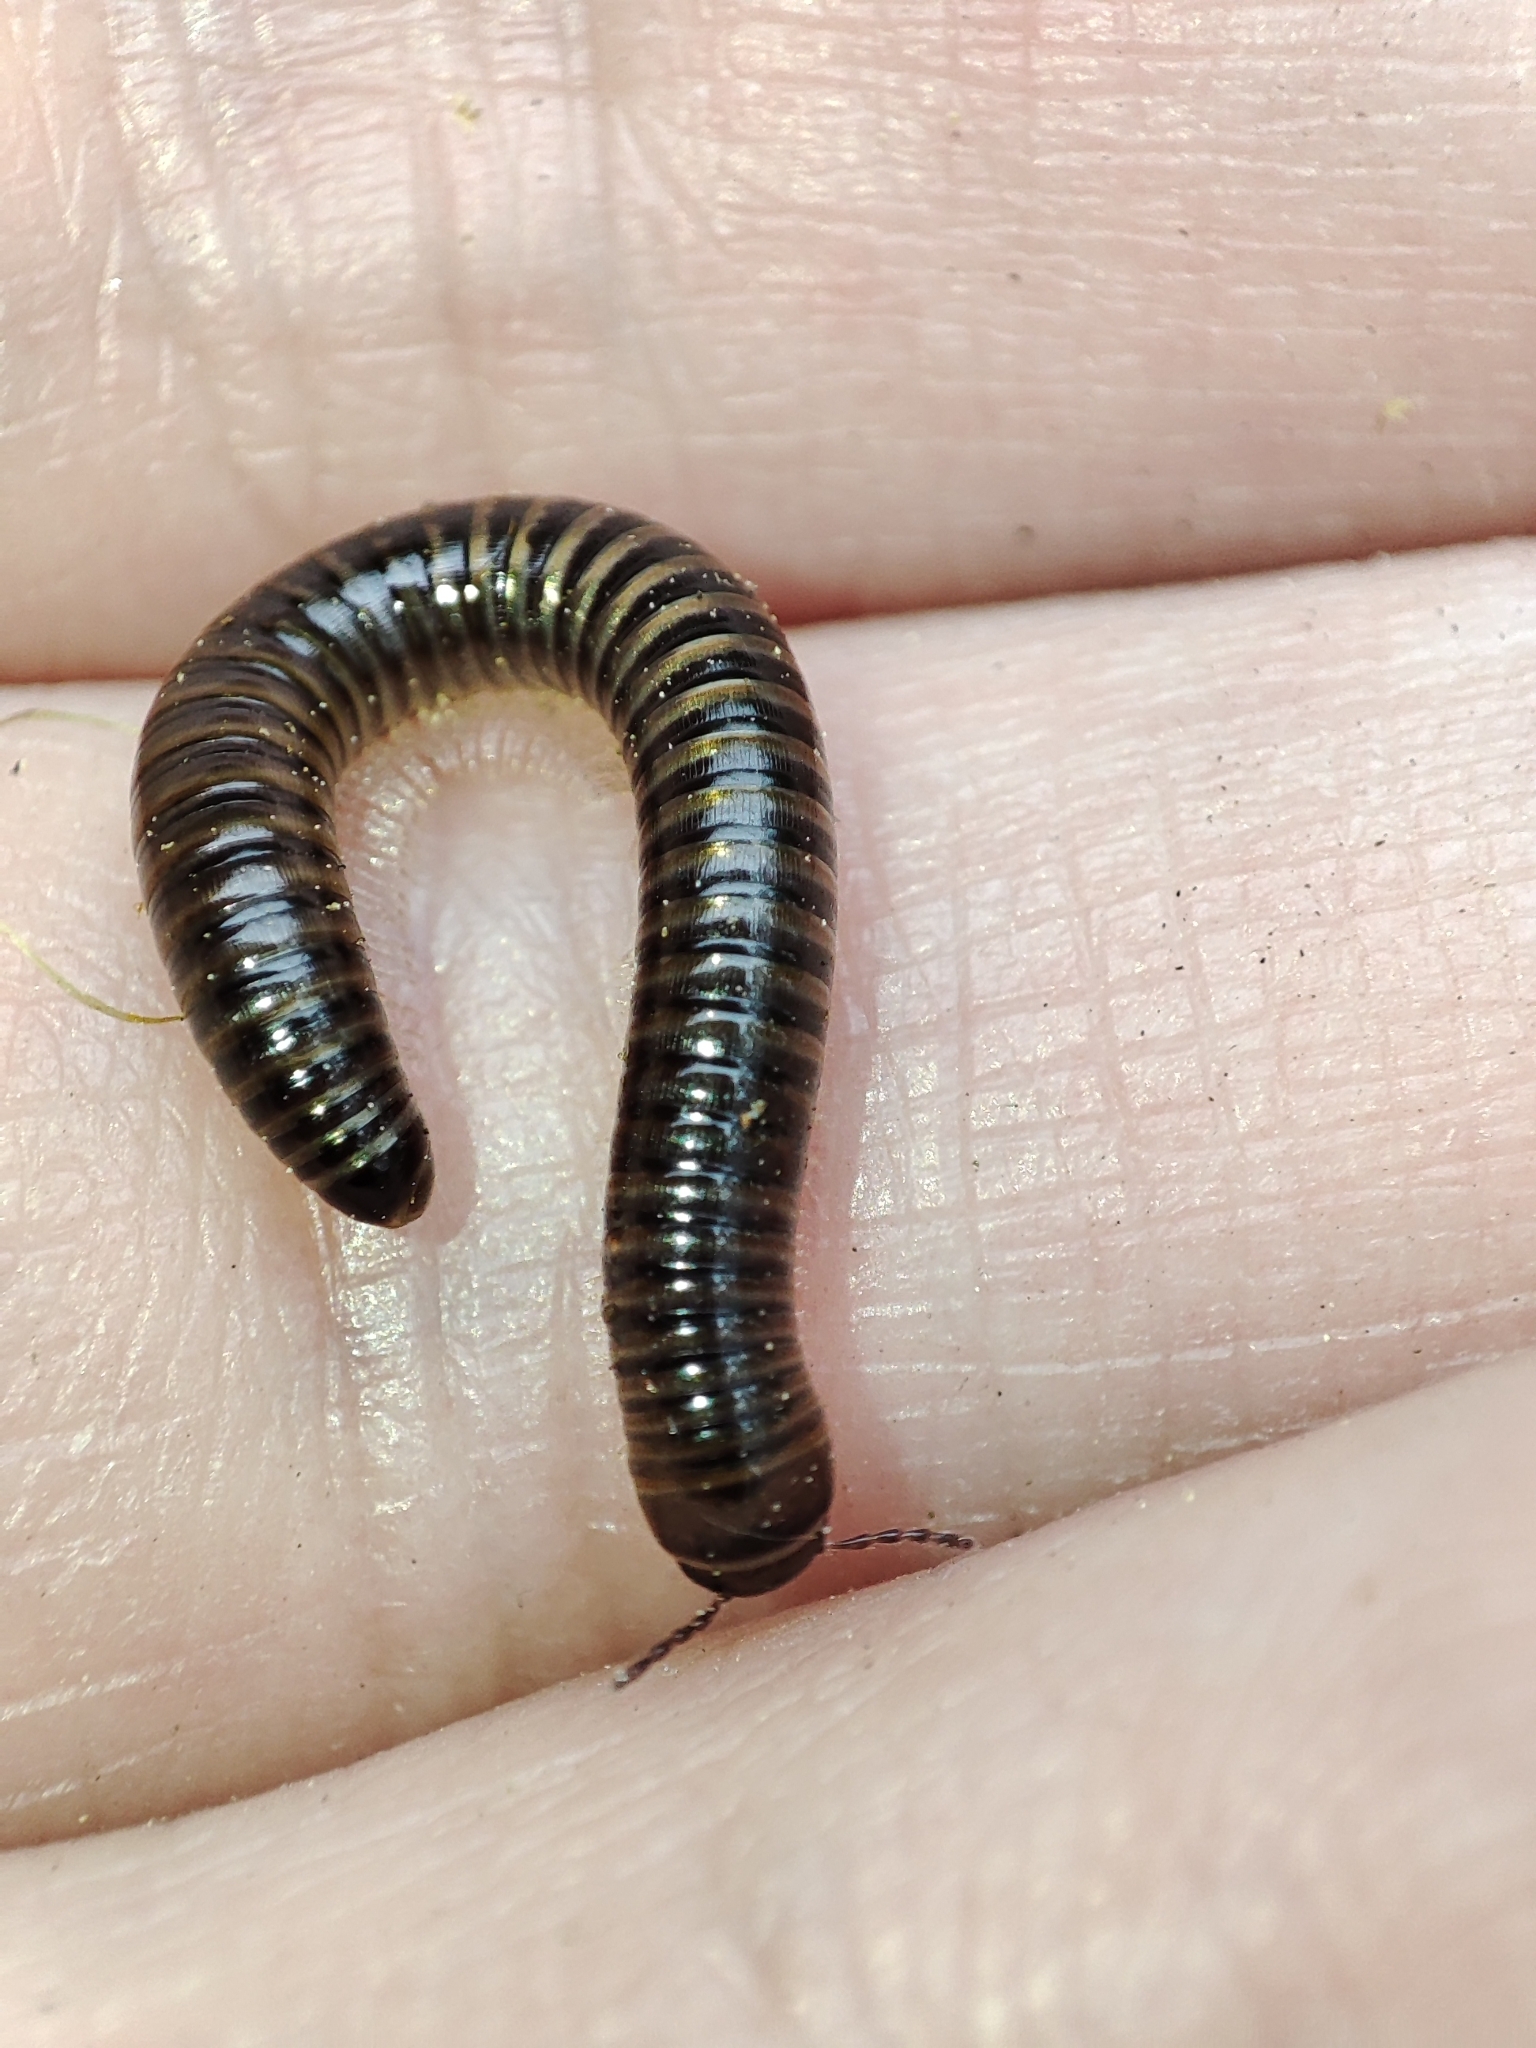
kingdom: Animalia
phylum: Arthropoda
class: Diplopoda
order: Julida
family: Julidae
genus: Cylindroiulus
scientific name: Cylindroiulus caeruleocinctus
